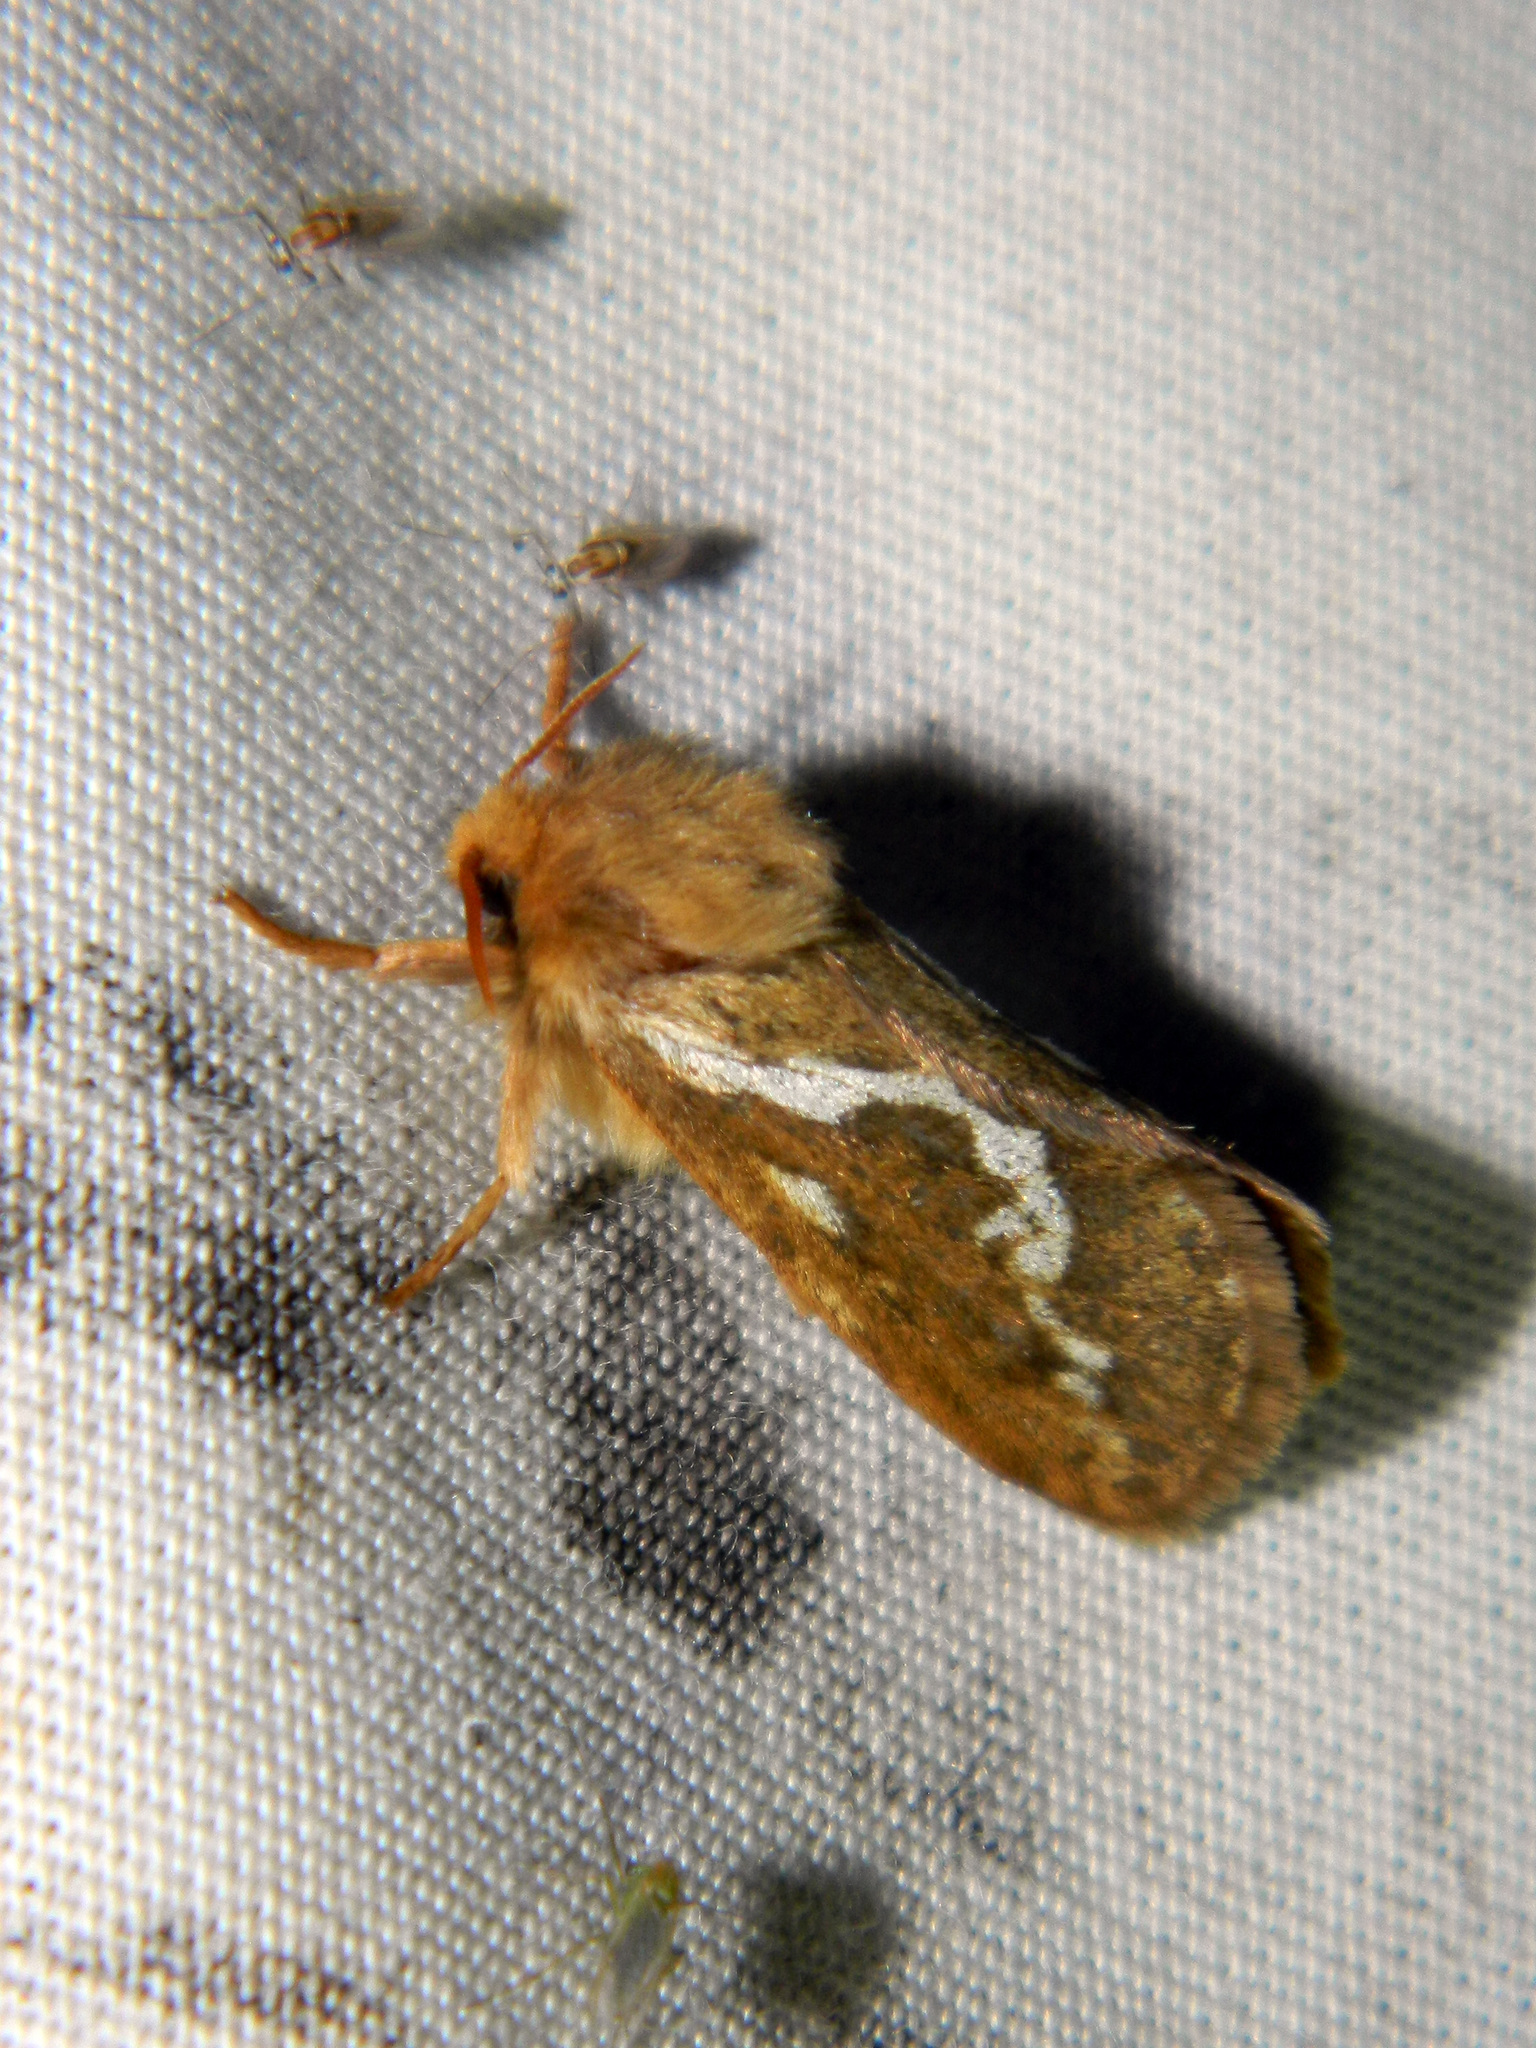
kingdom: Animalia
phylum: Arthropoda
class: Insecta
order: Lepidoptera
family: Hepialidae
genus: Korscheltellus
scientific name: Korscheltellus lupulina
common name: Common swift
